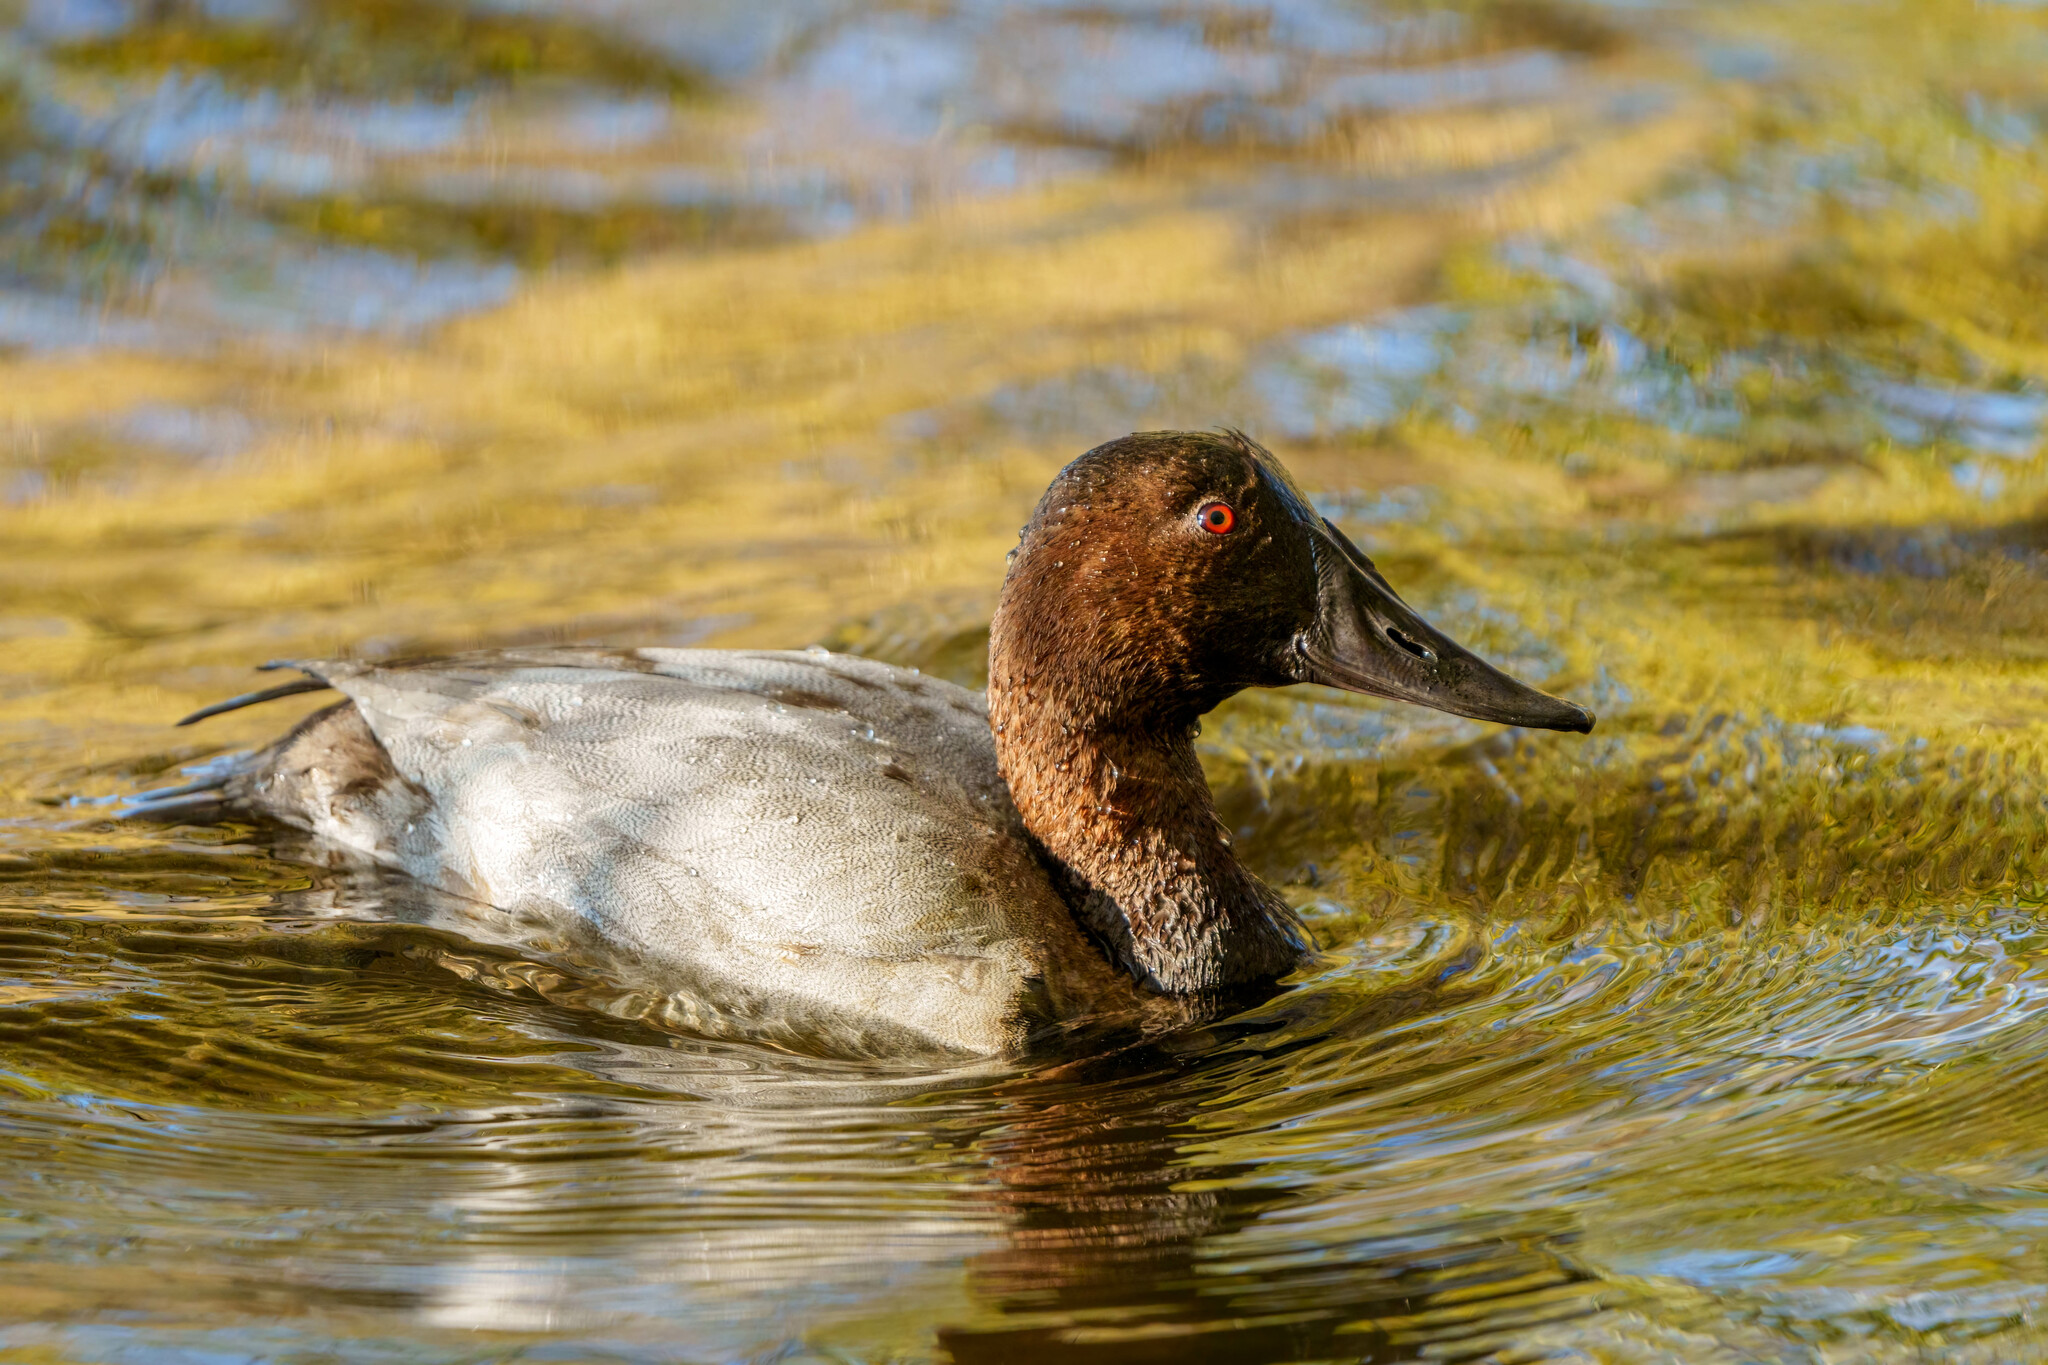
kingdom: Animalia
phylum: Chordata
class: Aves
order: Anseriformes
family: Anatidae
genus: Aythya
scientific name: Aythya valisineria
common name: Canvasback
